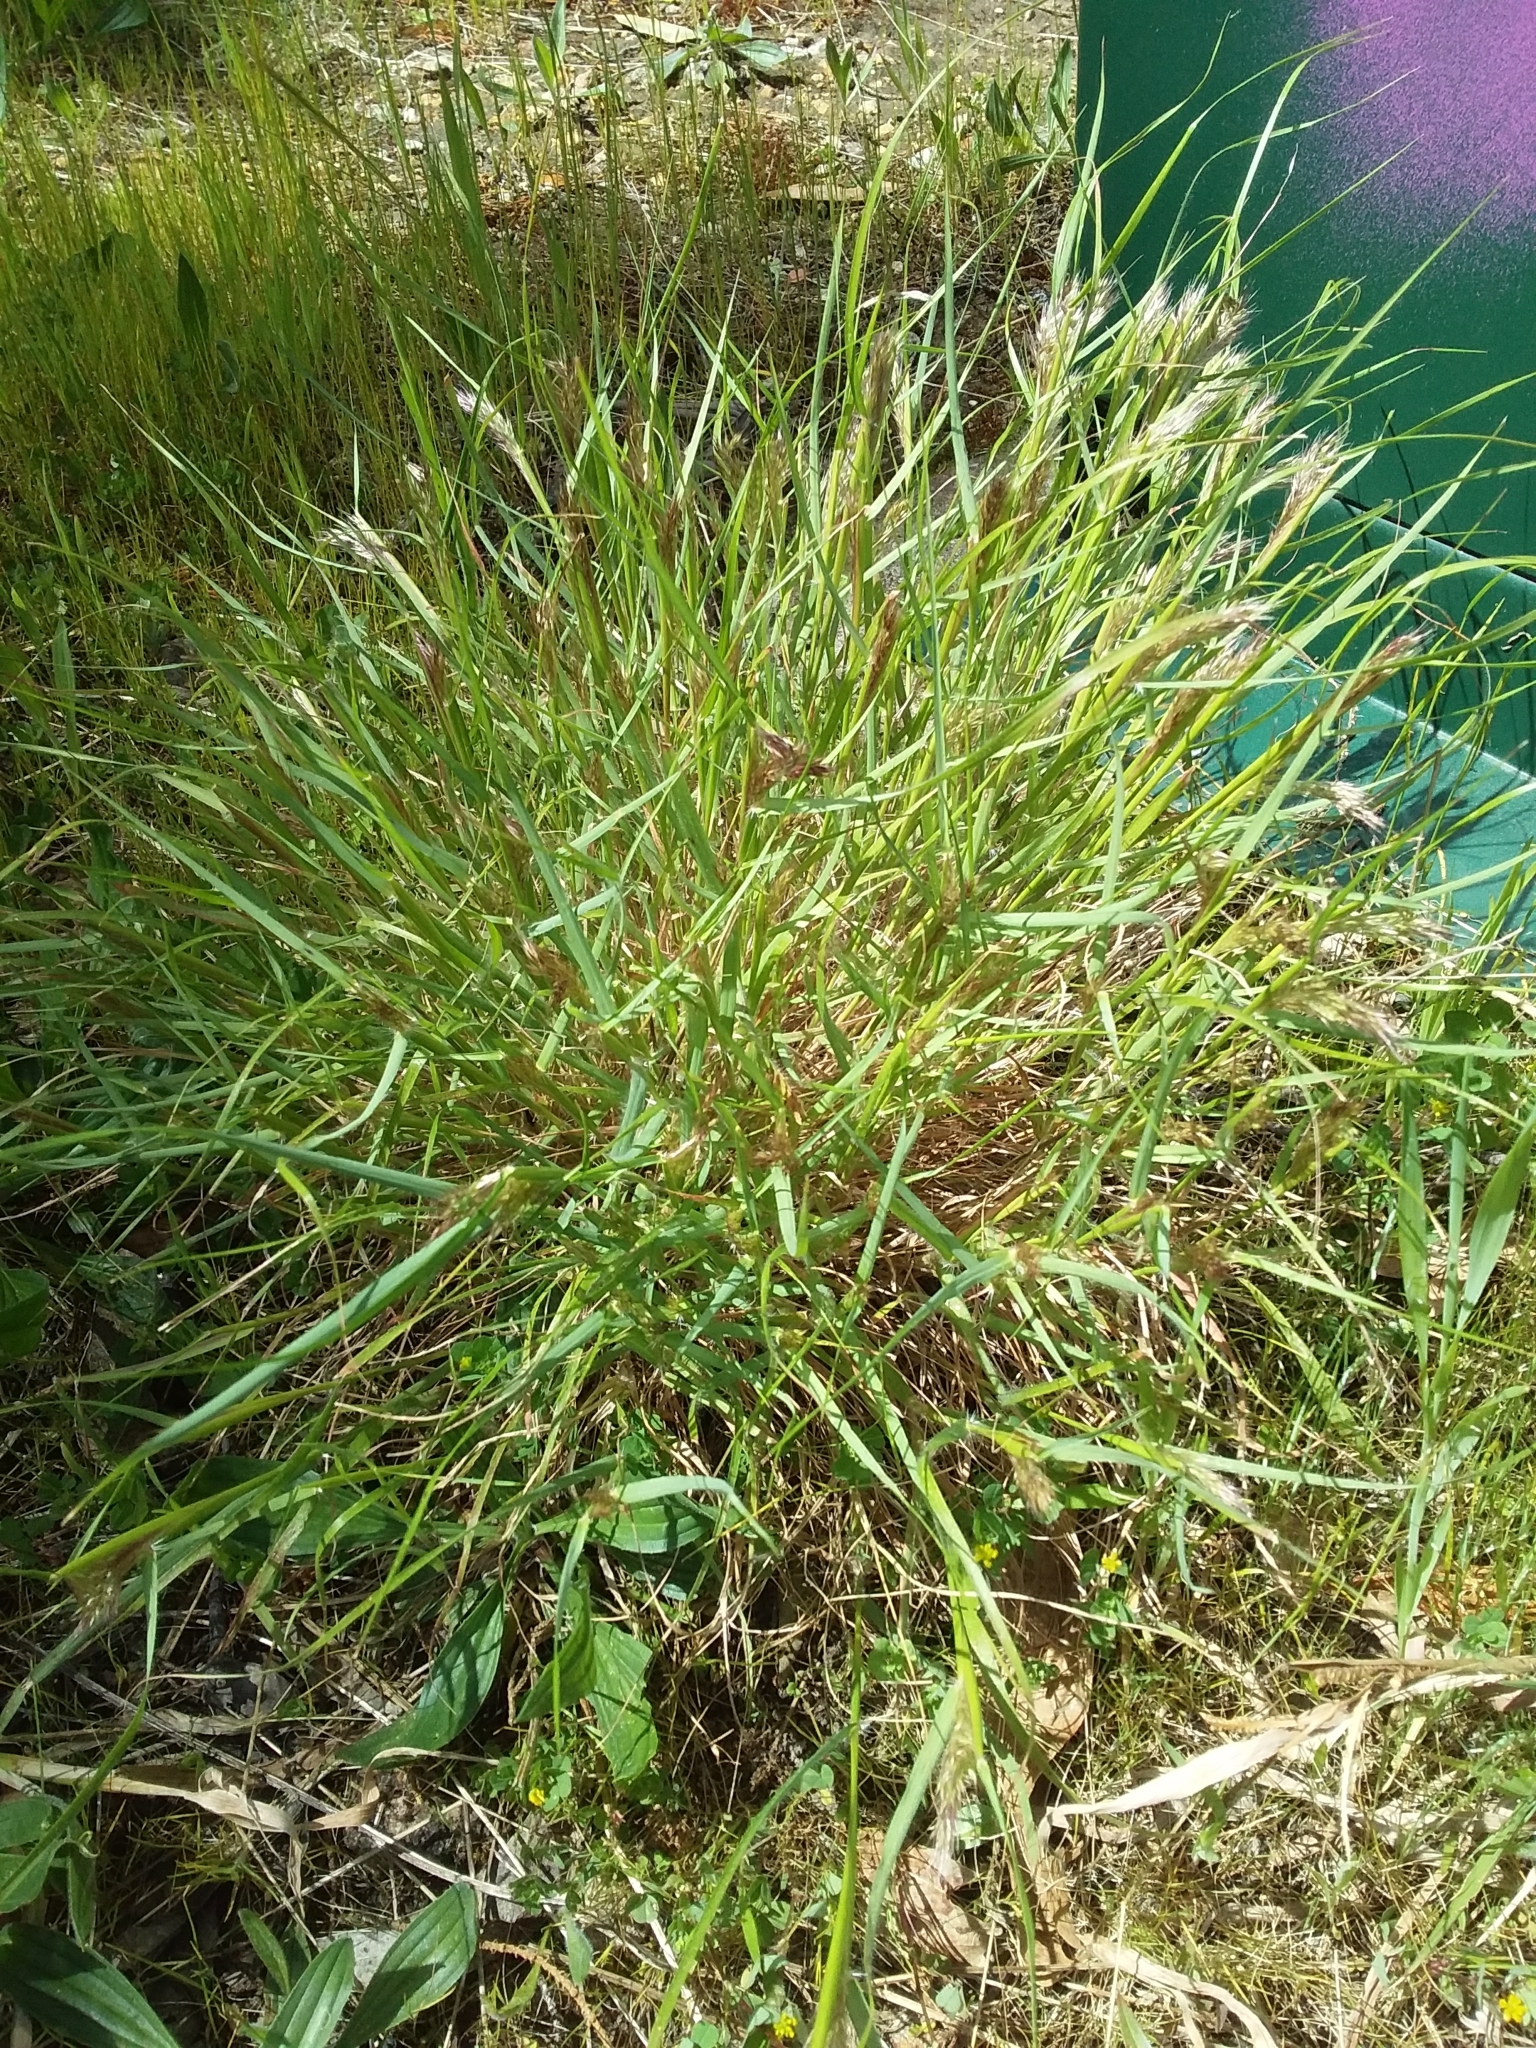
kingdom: Plantae
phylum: Tracheophyta
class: Liliopsida
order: Poales
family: Poaceae
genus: Pentameris
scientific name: Pentameris pallida
